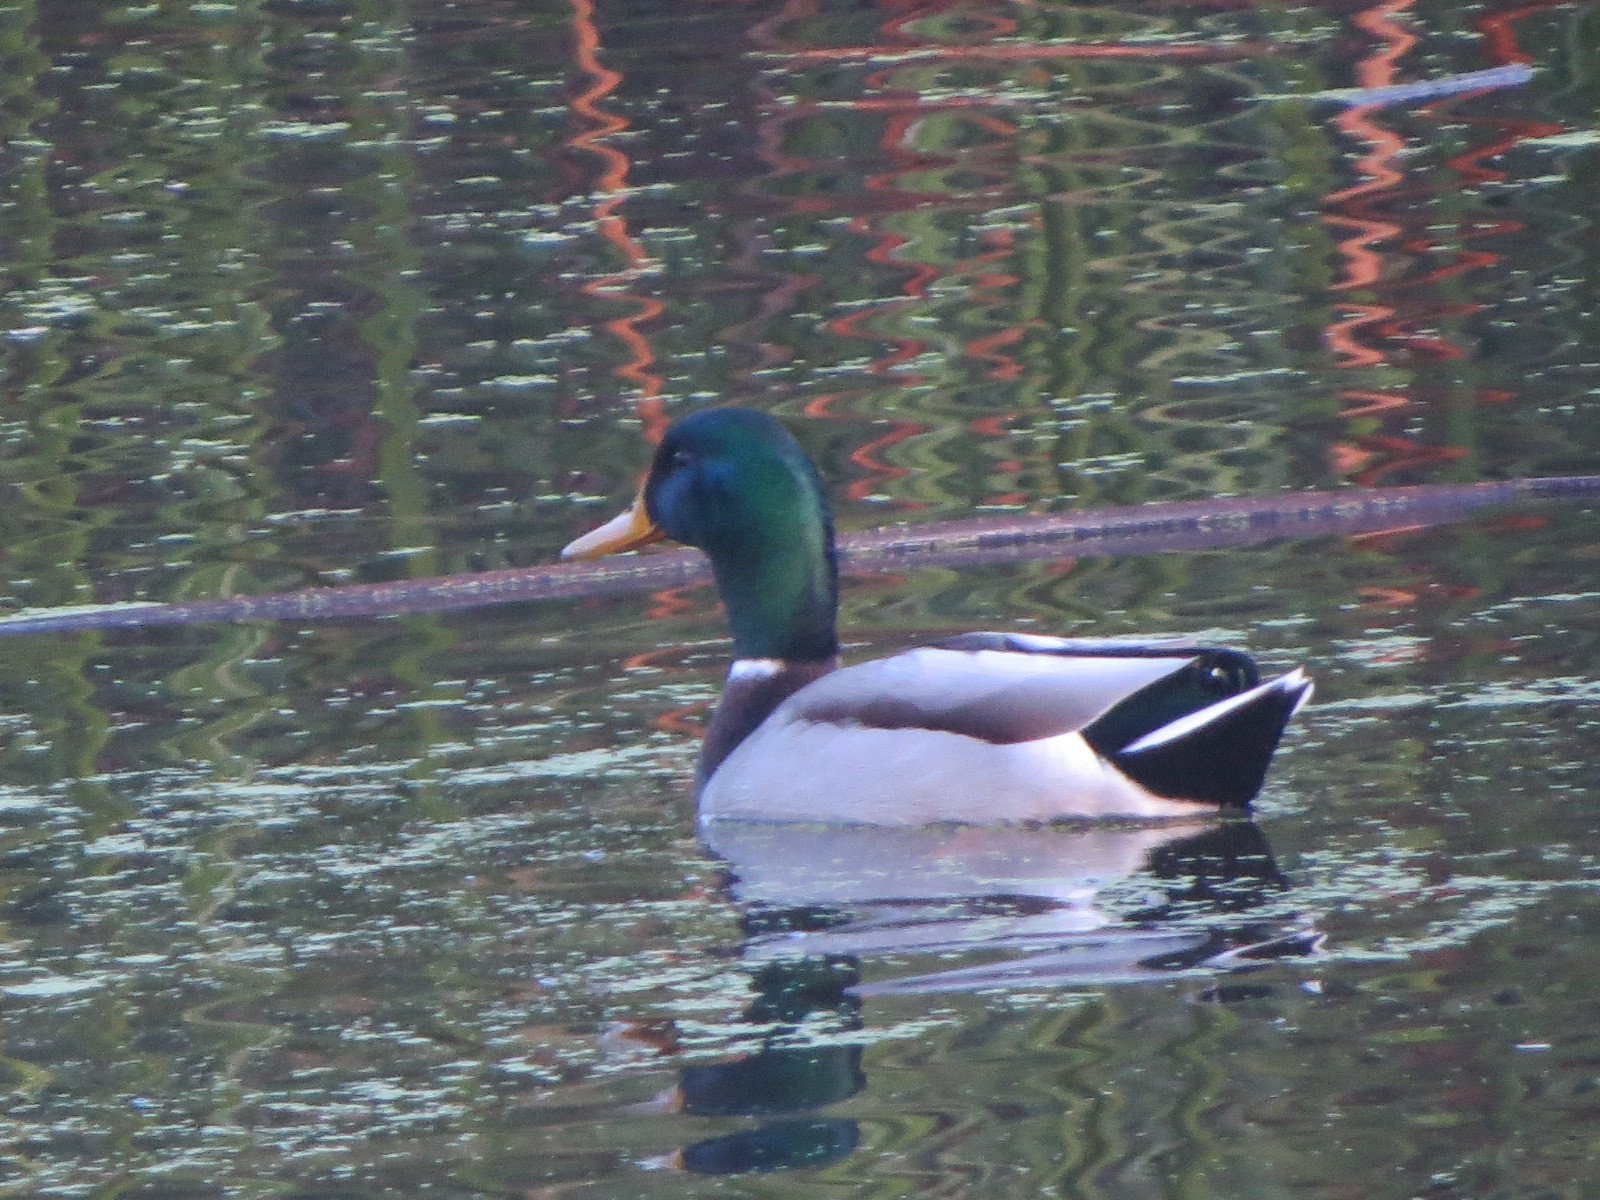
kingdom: Animalia
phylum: Chordata
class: Aves
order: Anseriformes
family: Anatidae
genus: Anas
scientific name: Anas platyrhynchos
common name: Mallard
